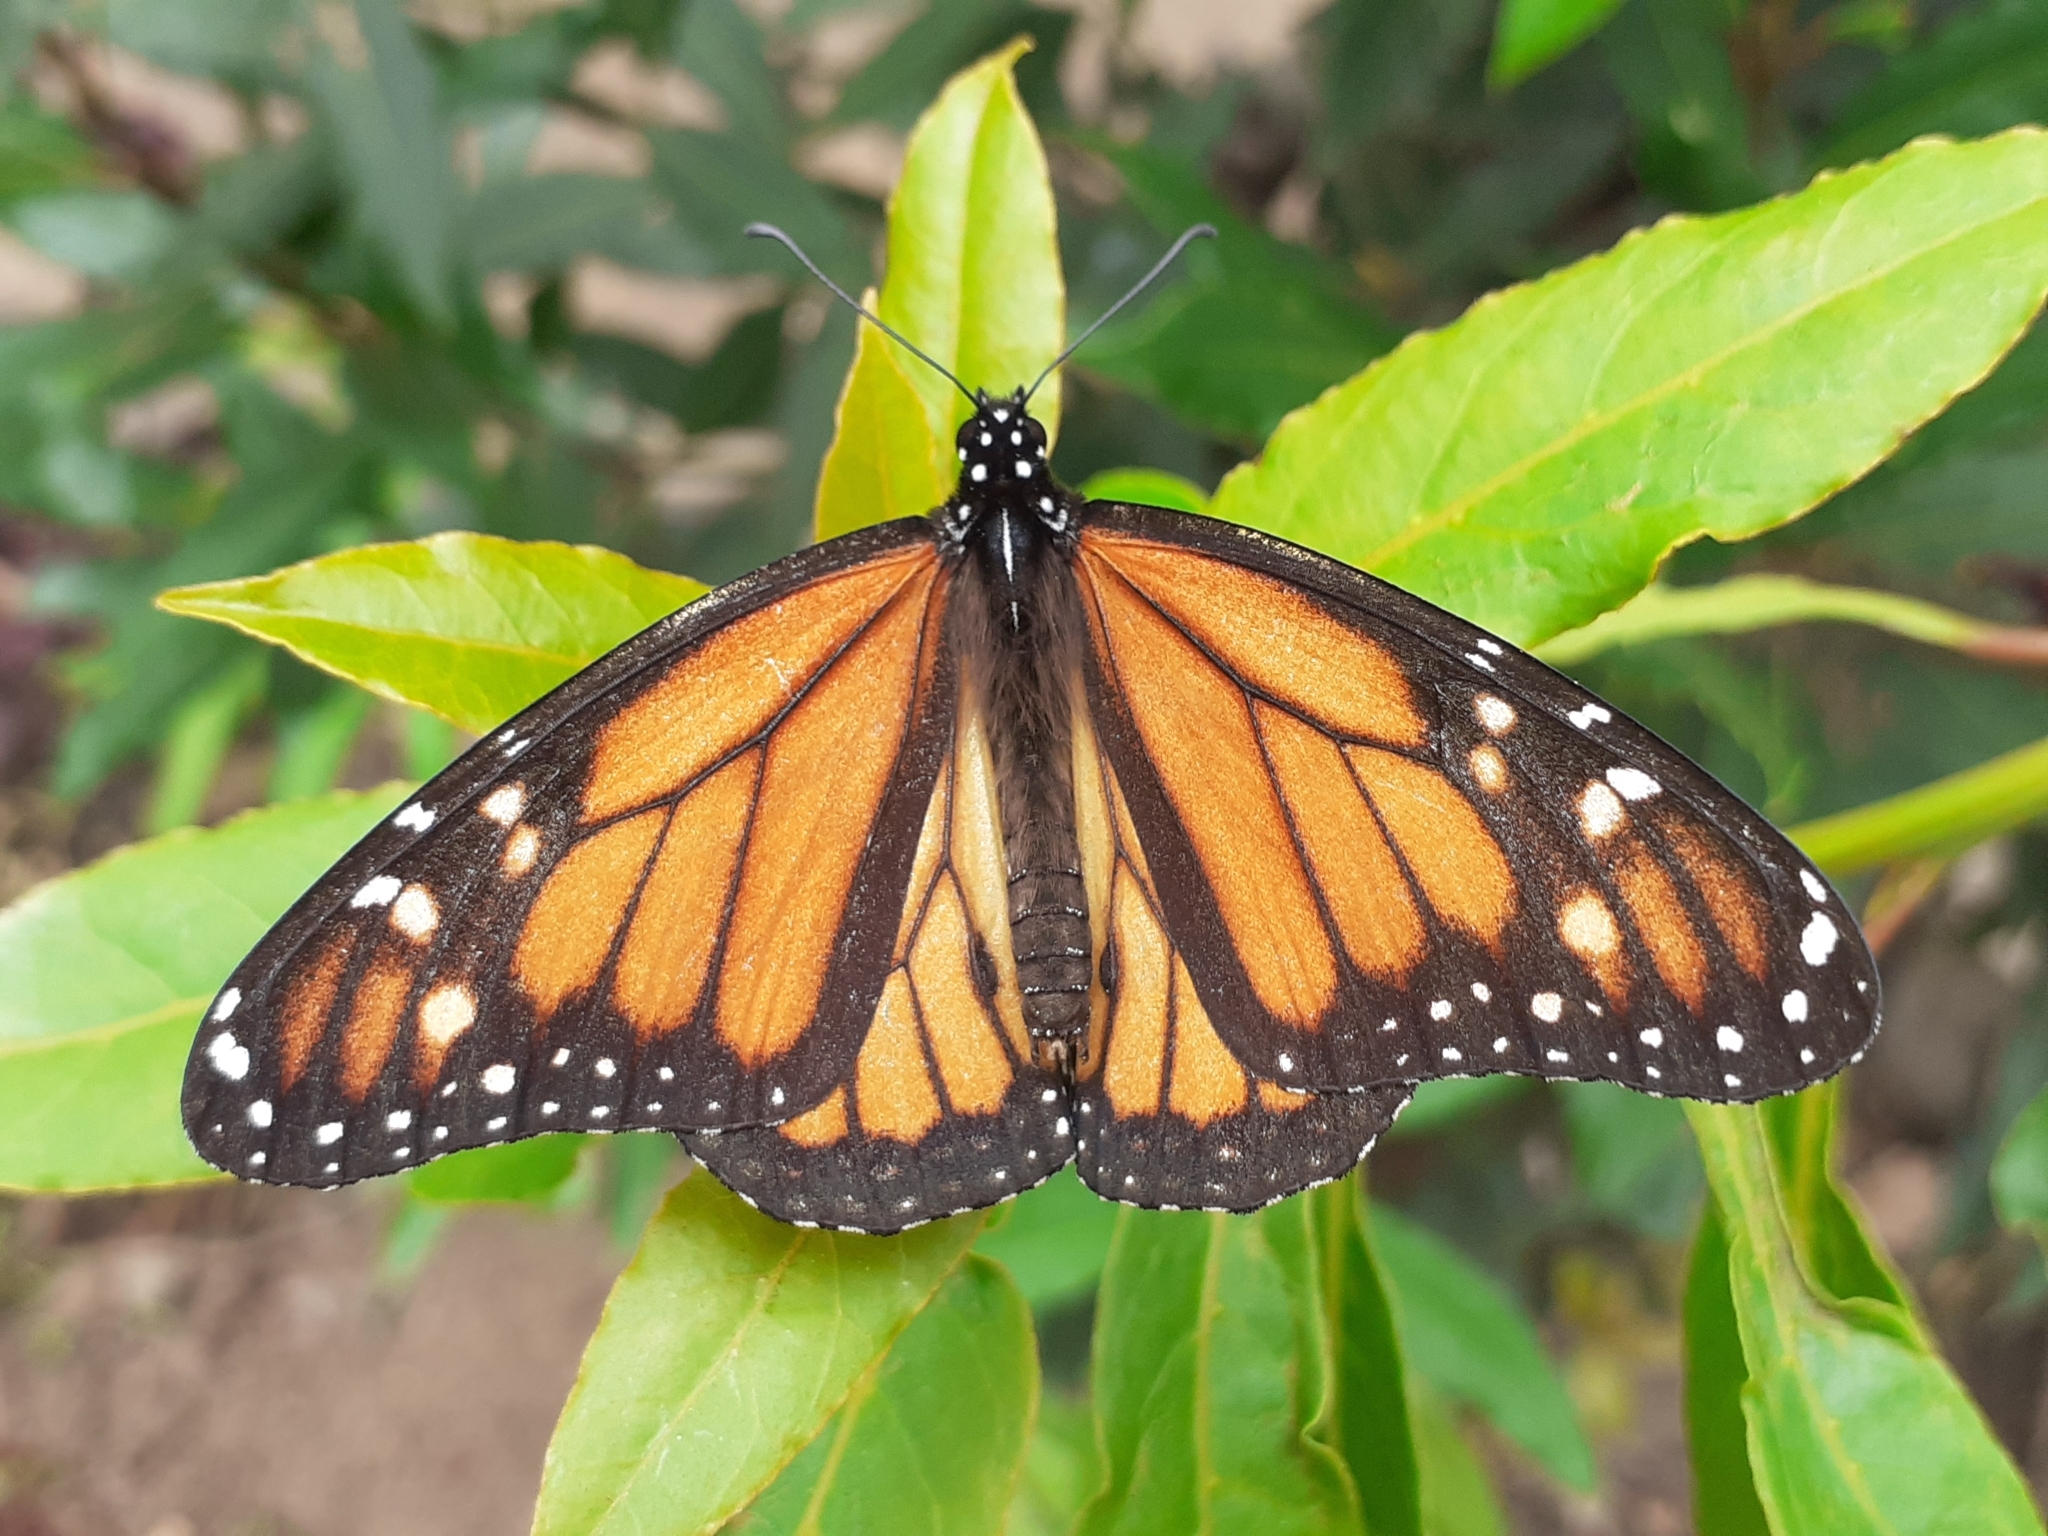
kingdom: Animalia
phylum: Arthropoda
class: Insecta
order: Lepidoptera
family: Nymphalidae
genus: Danaus
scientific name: Danaus plexippus
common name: Monarch
